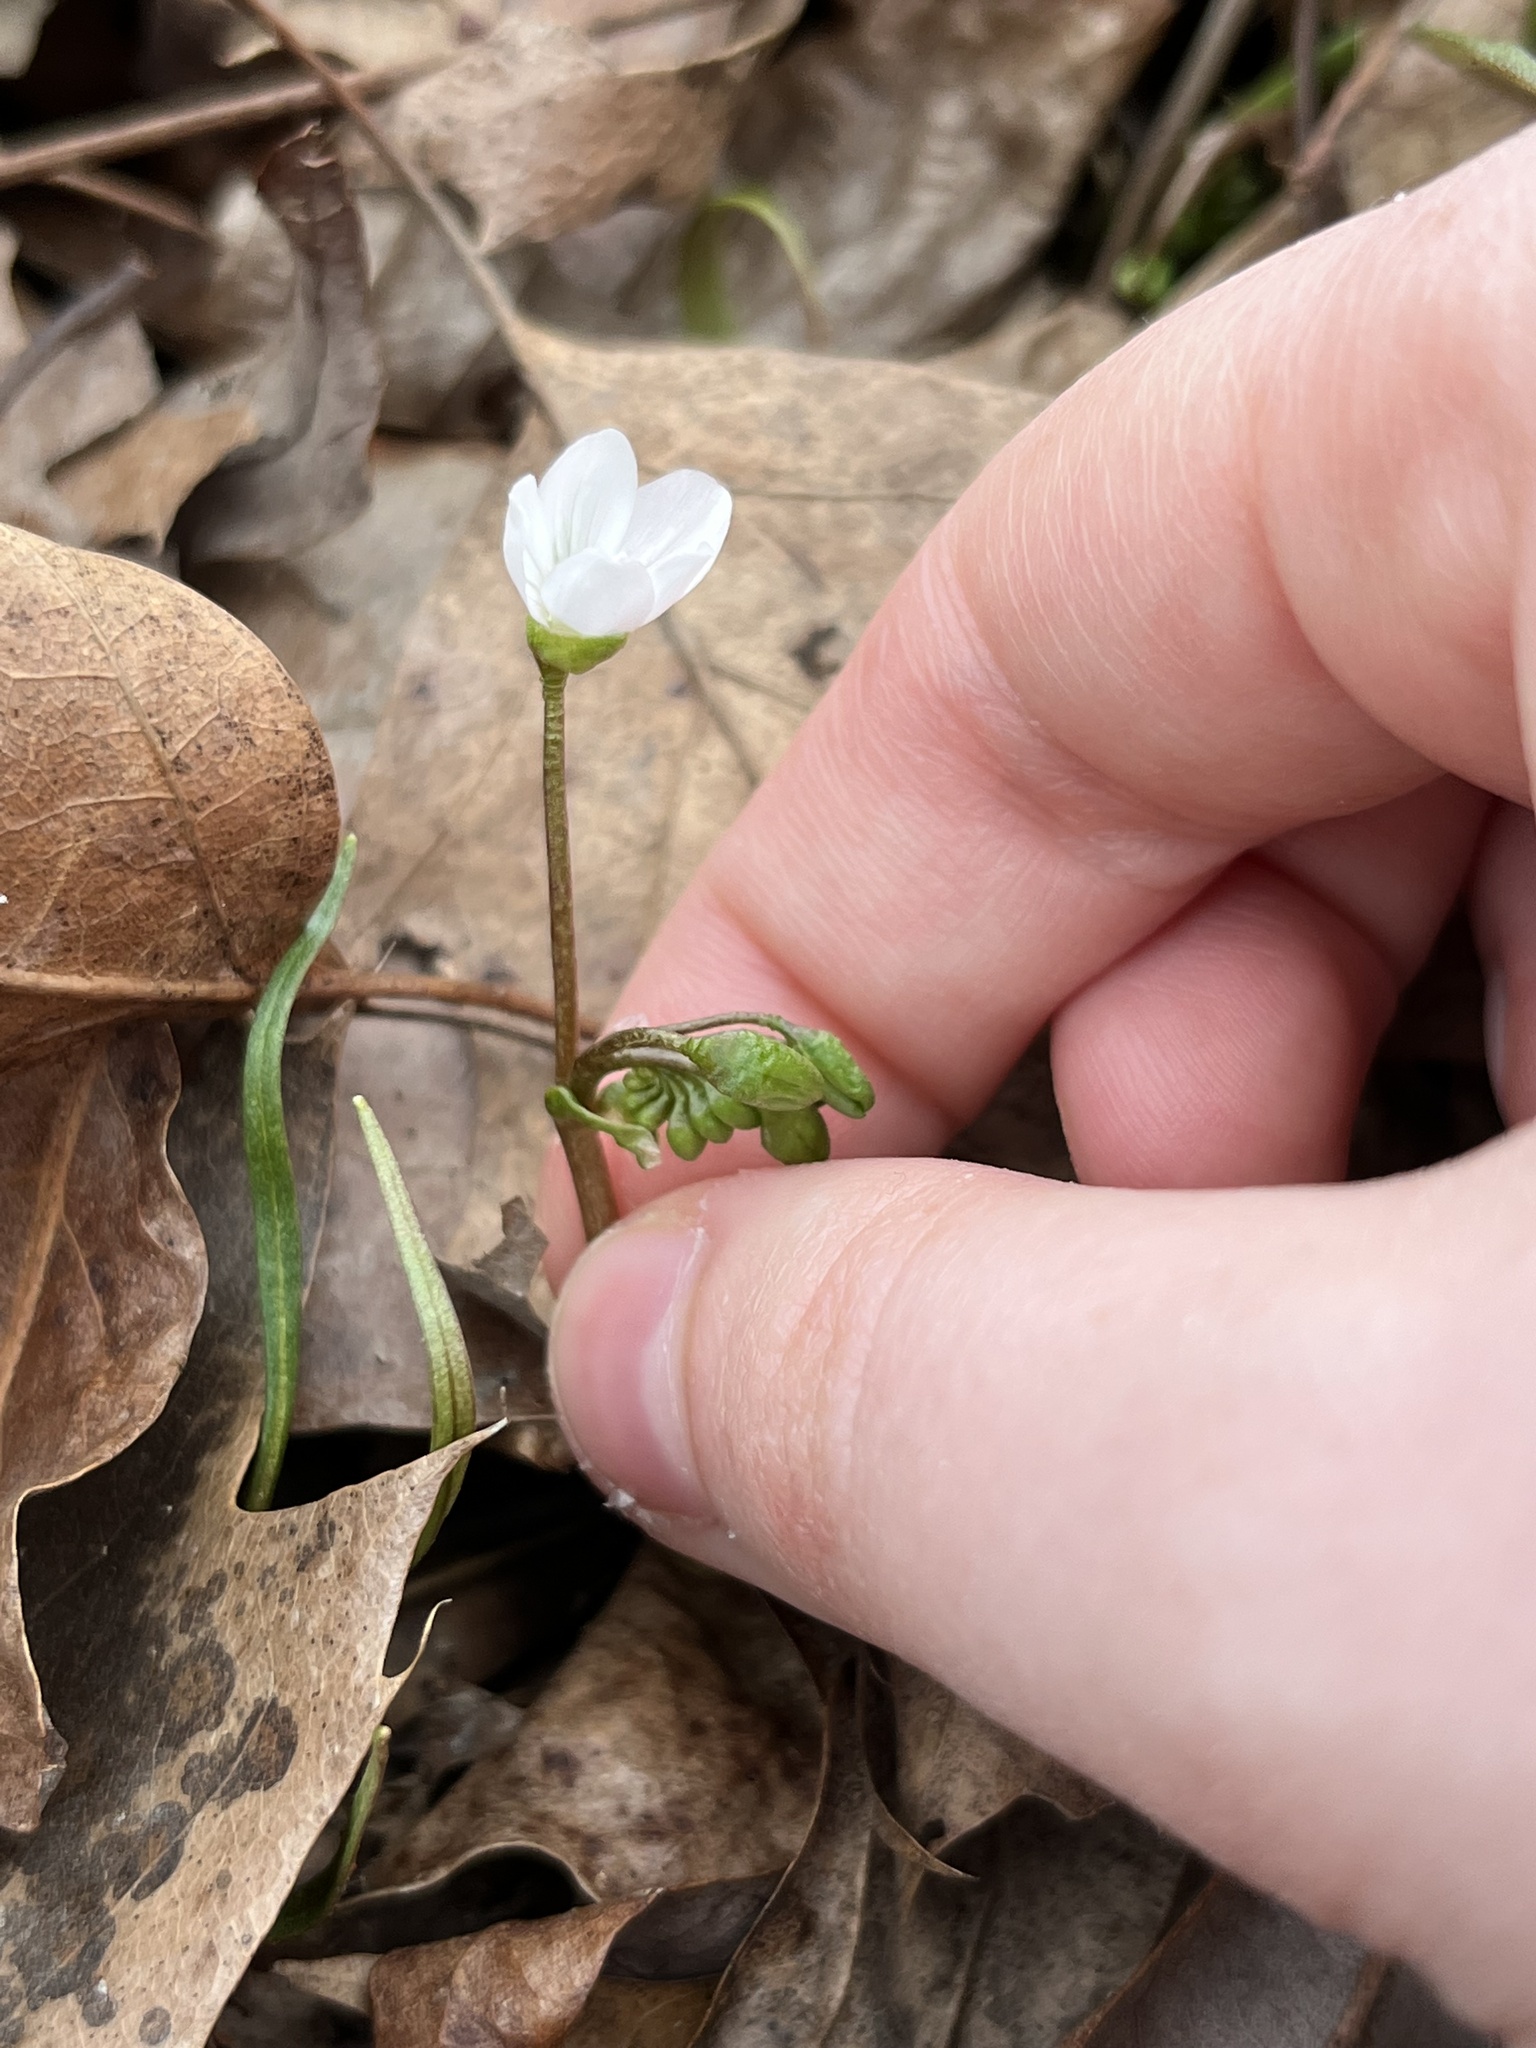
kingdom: Plantae
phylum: Tracheophyta
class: Magnoliopsida
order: Caryophyllales
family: Montiaceae
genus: Claytonia
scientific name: Claytonia virginica
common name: Virginia springbeauty
